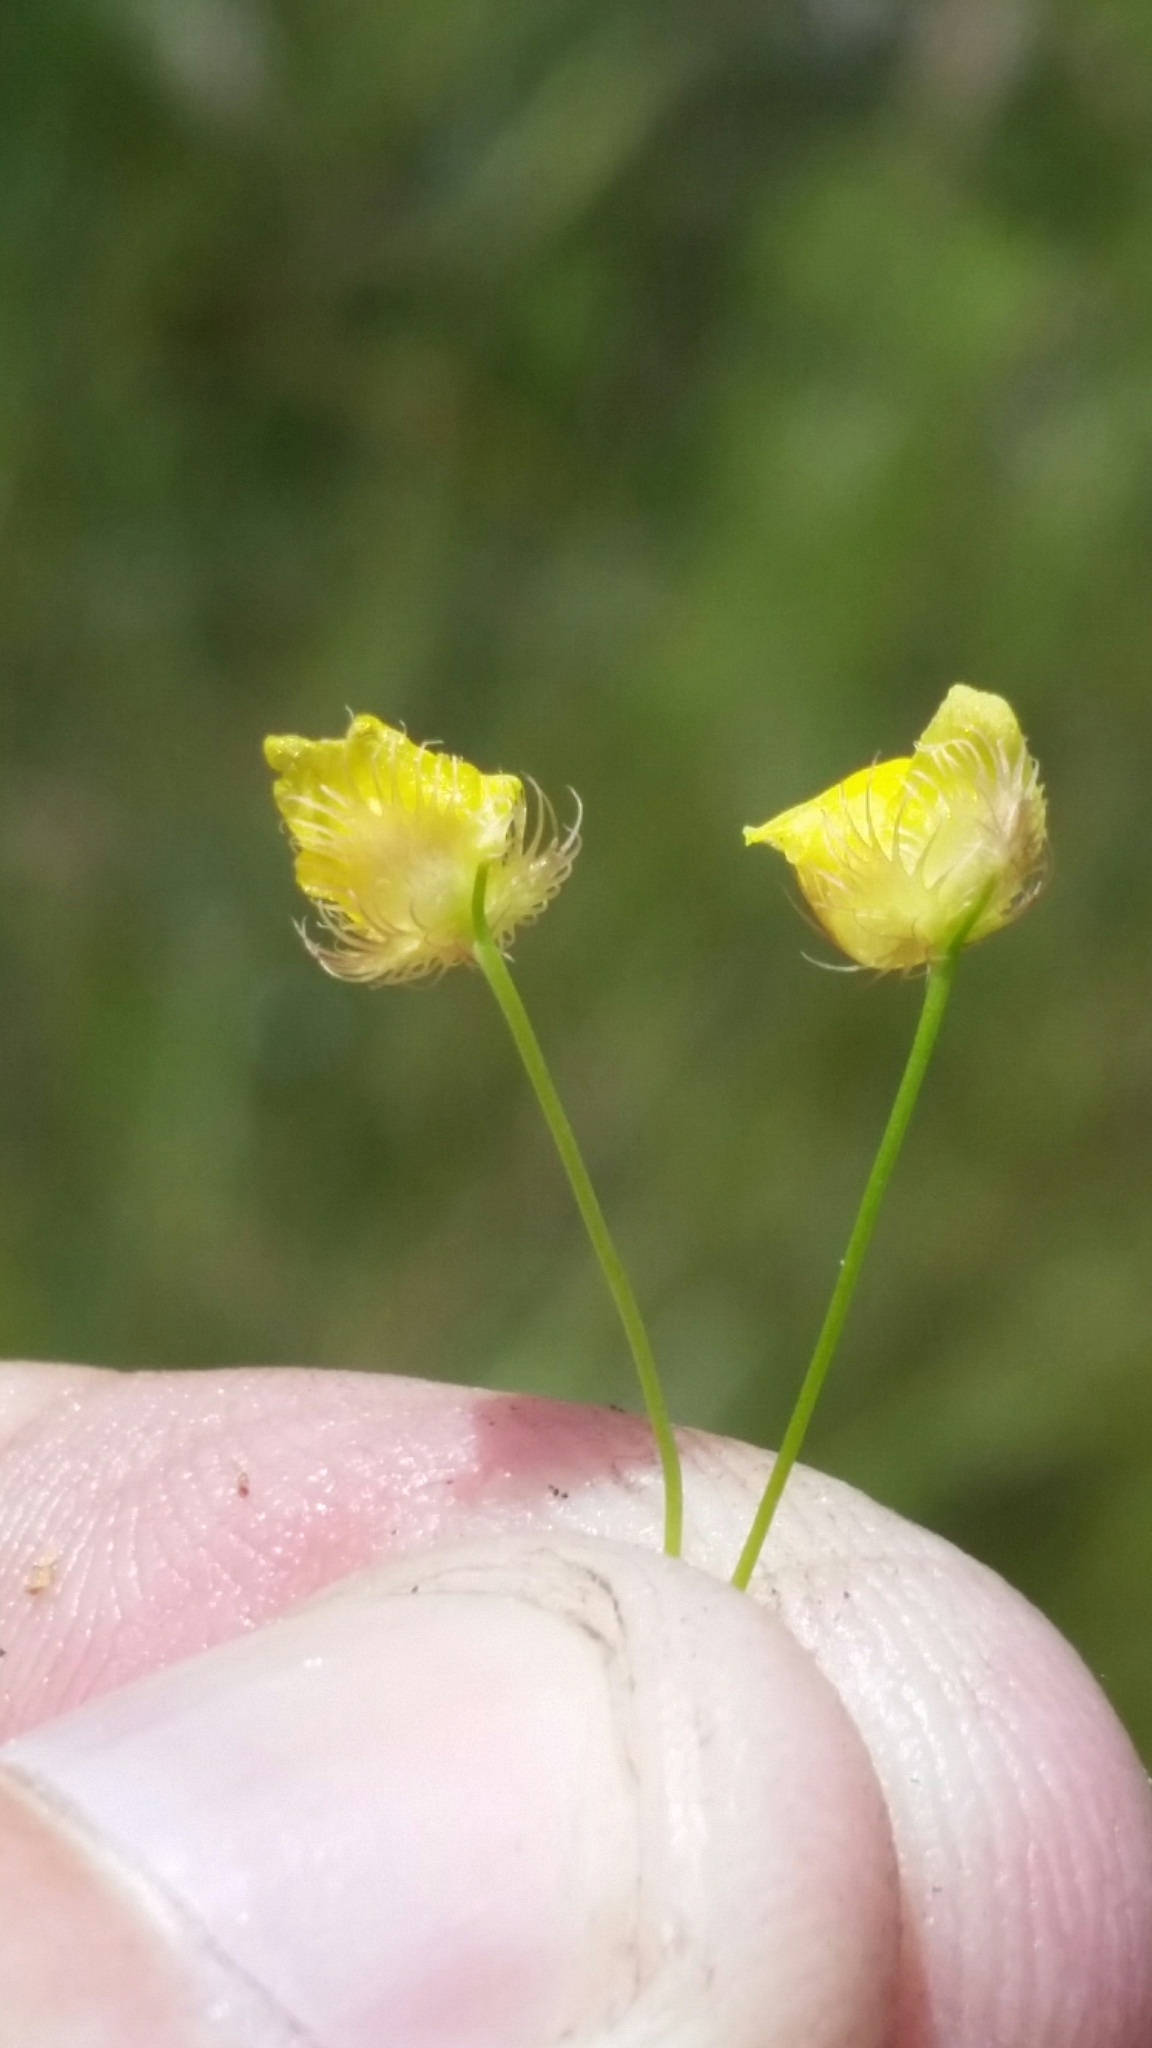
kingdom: Plantae
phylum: Tracheophyta
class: Magnoliopsida
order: Lamiales
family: Lentibulariaceae
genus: Utricularia
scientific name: Utricularia simulans
